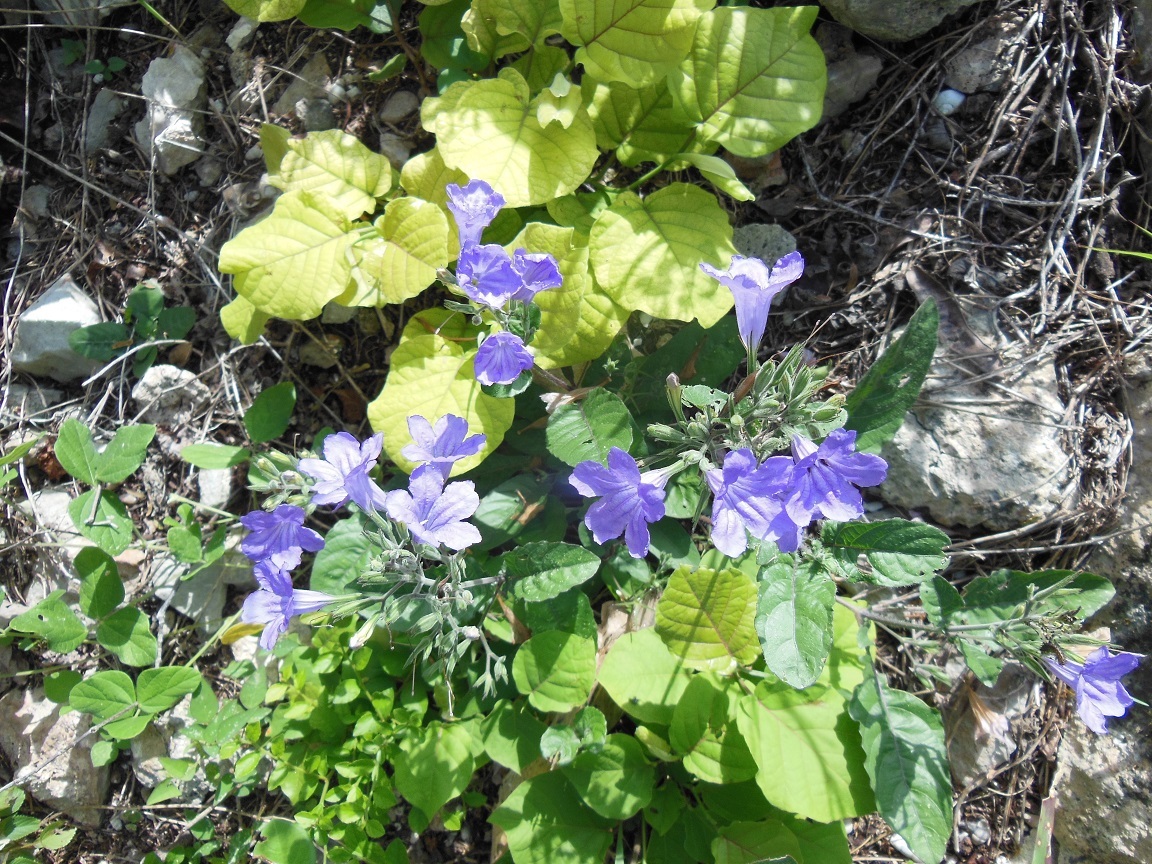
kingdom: Plantae
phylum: Tracheophyta
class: Magnoliopsida
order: Lamiales
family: Acanthaceae
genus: Ruellia
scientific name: Ruellia ciliatiflora
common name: Hairyflower wild petunia
